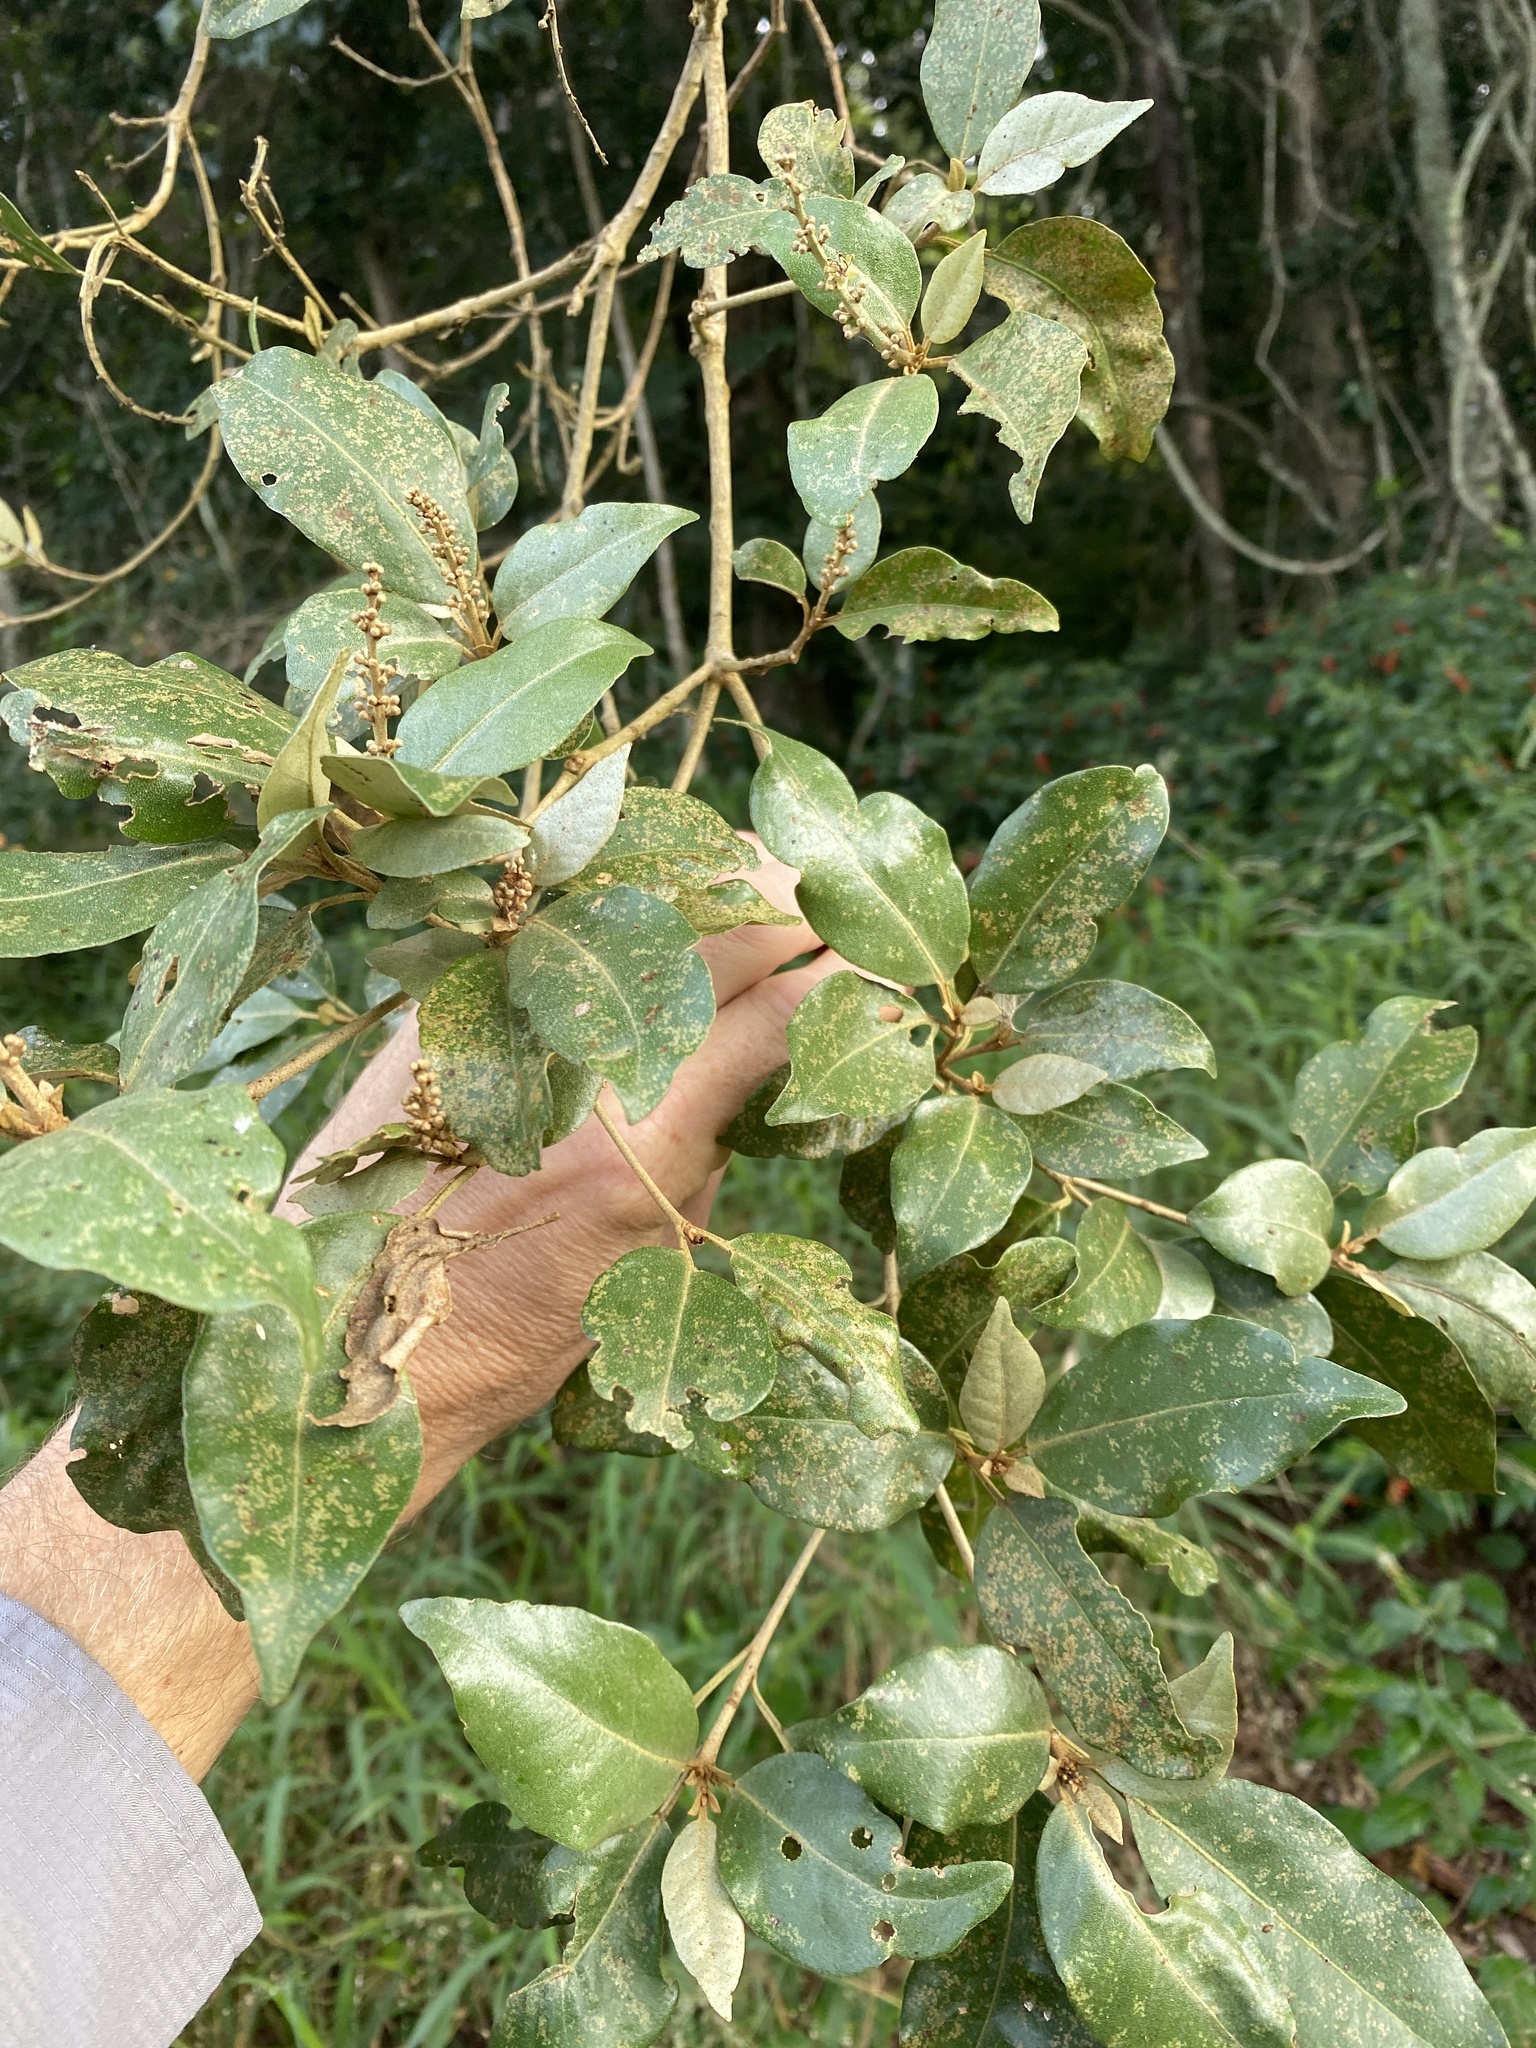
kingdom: Plantae
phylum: Tracheophyta
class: Magnoliopsida
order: Malpighiales
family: Euphorbiaceae
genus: Croton
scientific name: Croton insularis
